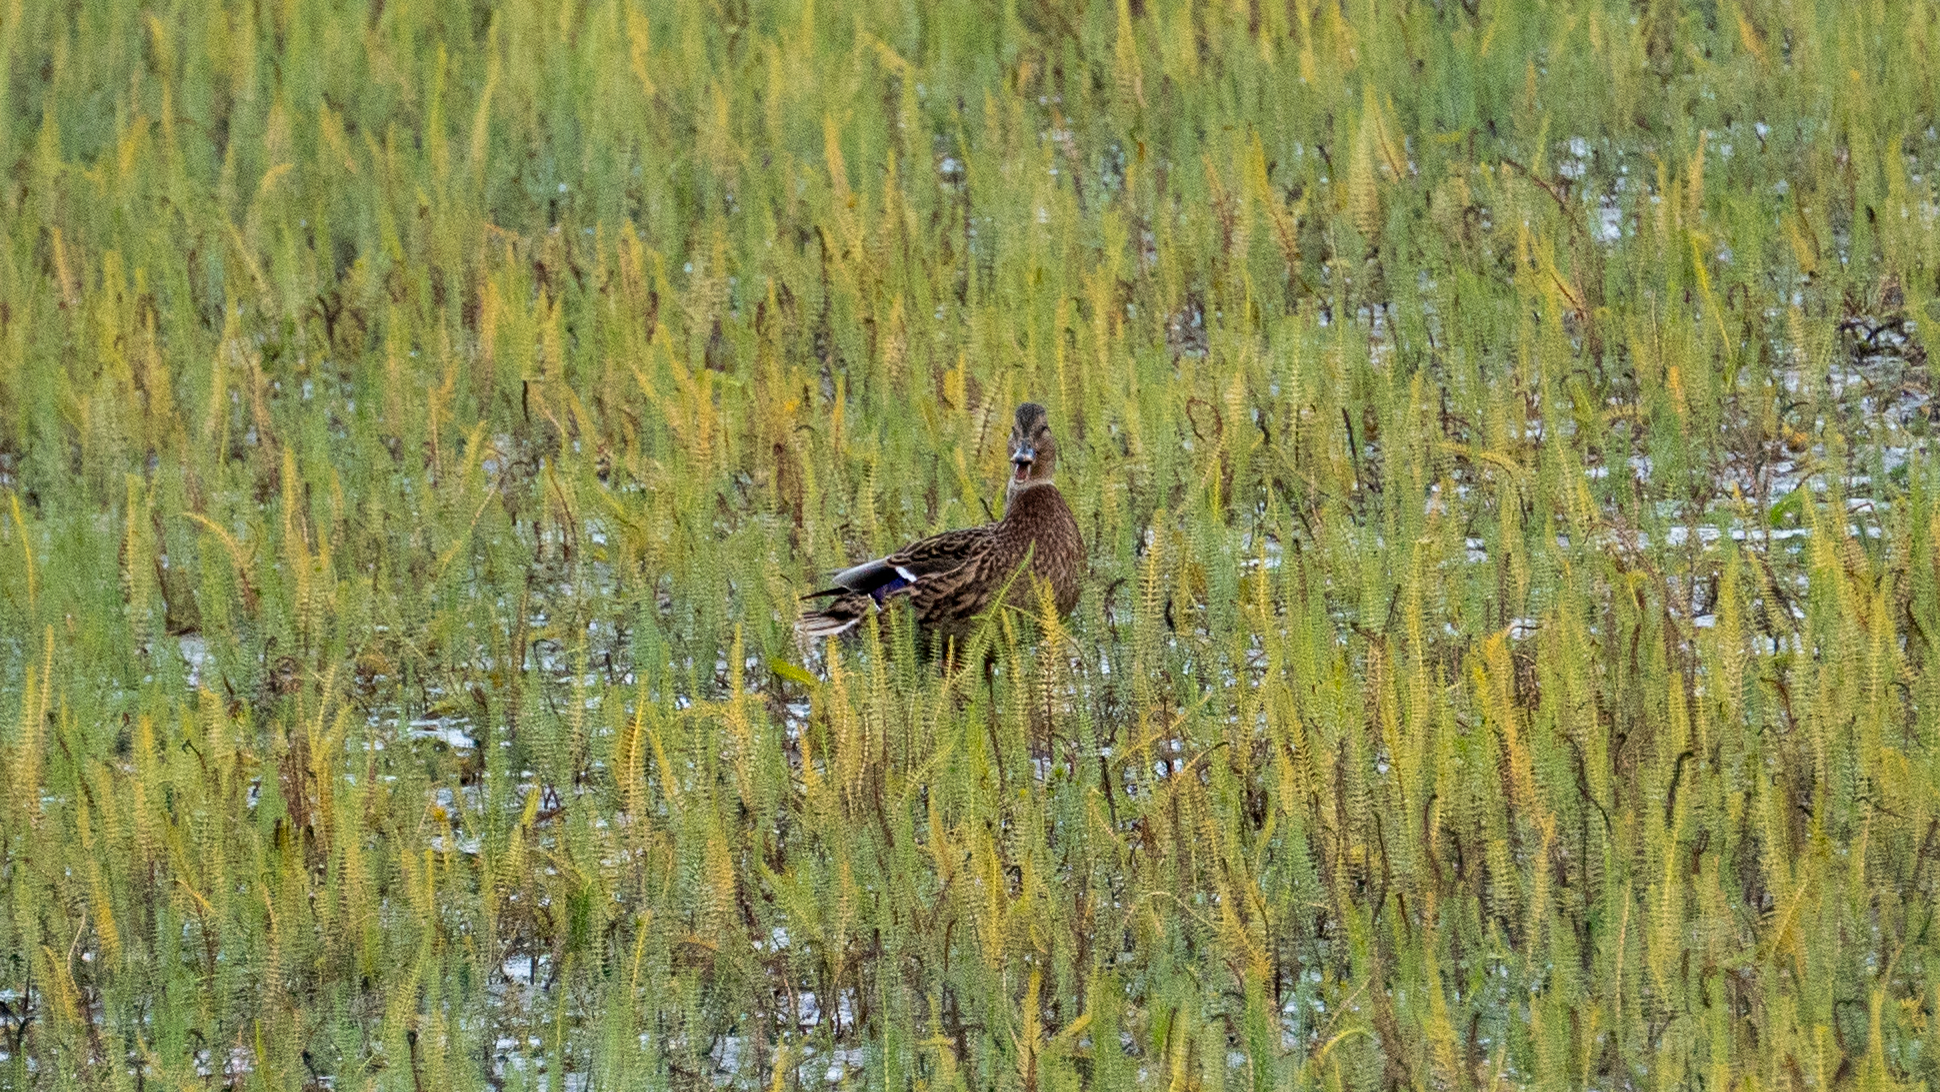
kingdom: Animalia
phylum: Chordata
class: Aves
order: Anseriformes
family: Anatidae
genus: Anas
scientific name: Anas platyrhynchos
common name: Mallard
